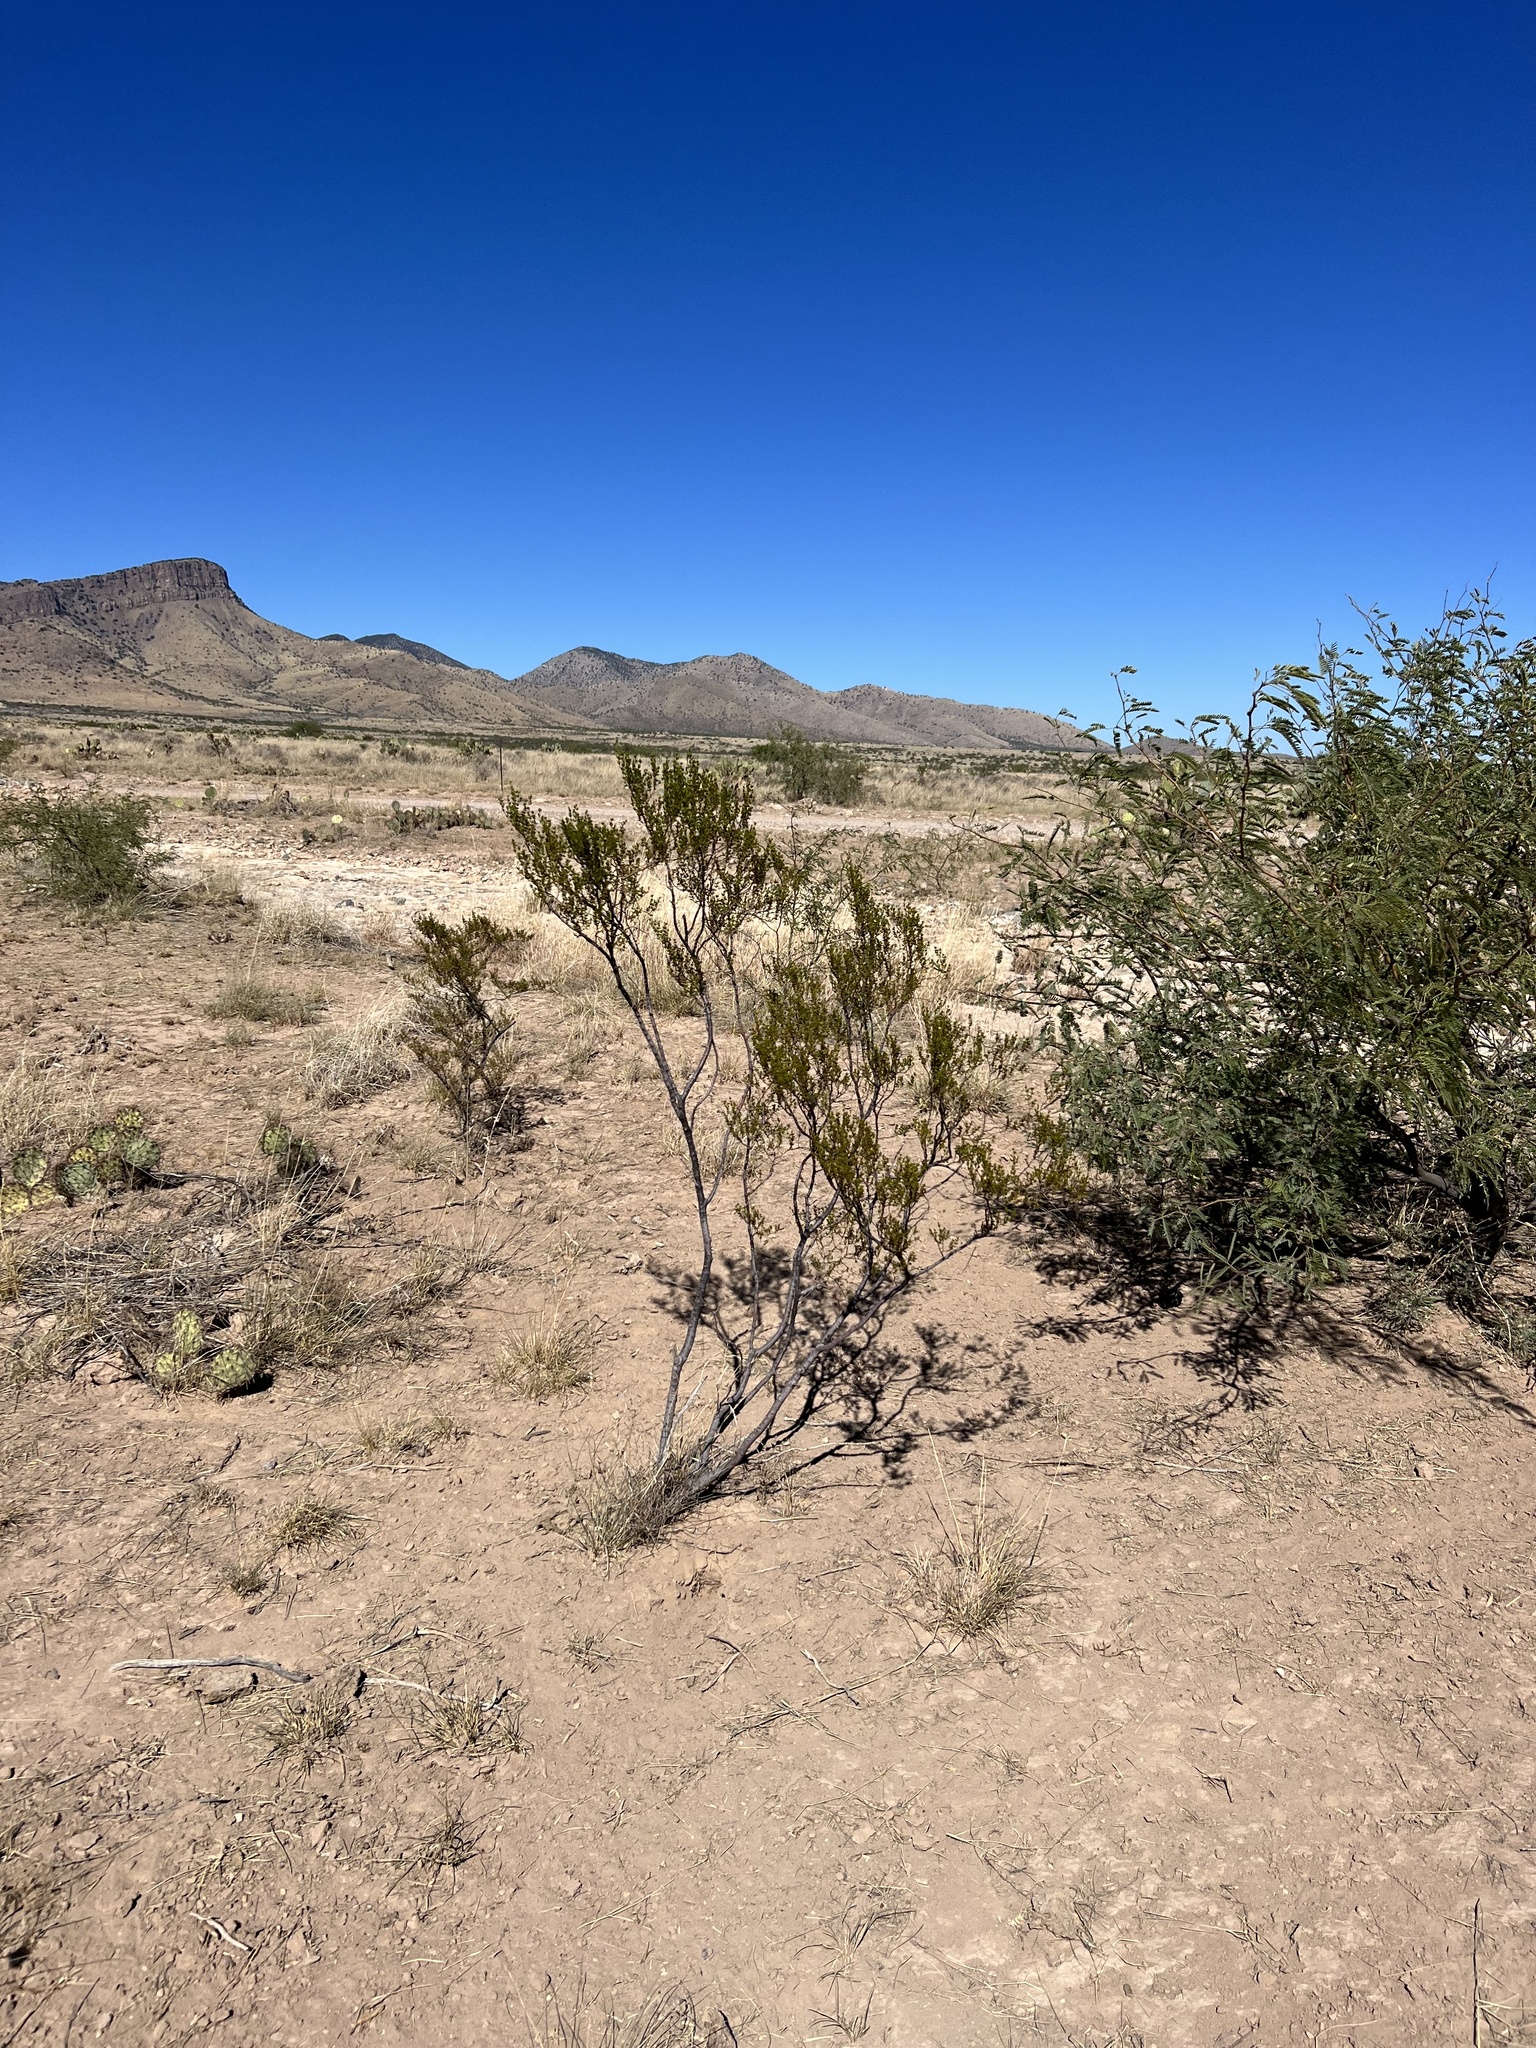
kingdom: Plantae
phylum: Tracheophyta
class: Magnoliopsida
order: Zygophyllales
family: Zygophyllaceae
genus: Larrea
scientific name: Larrea tridentata
